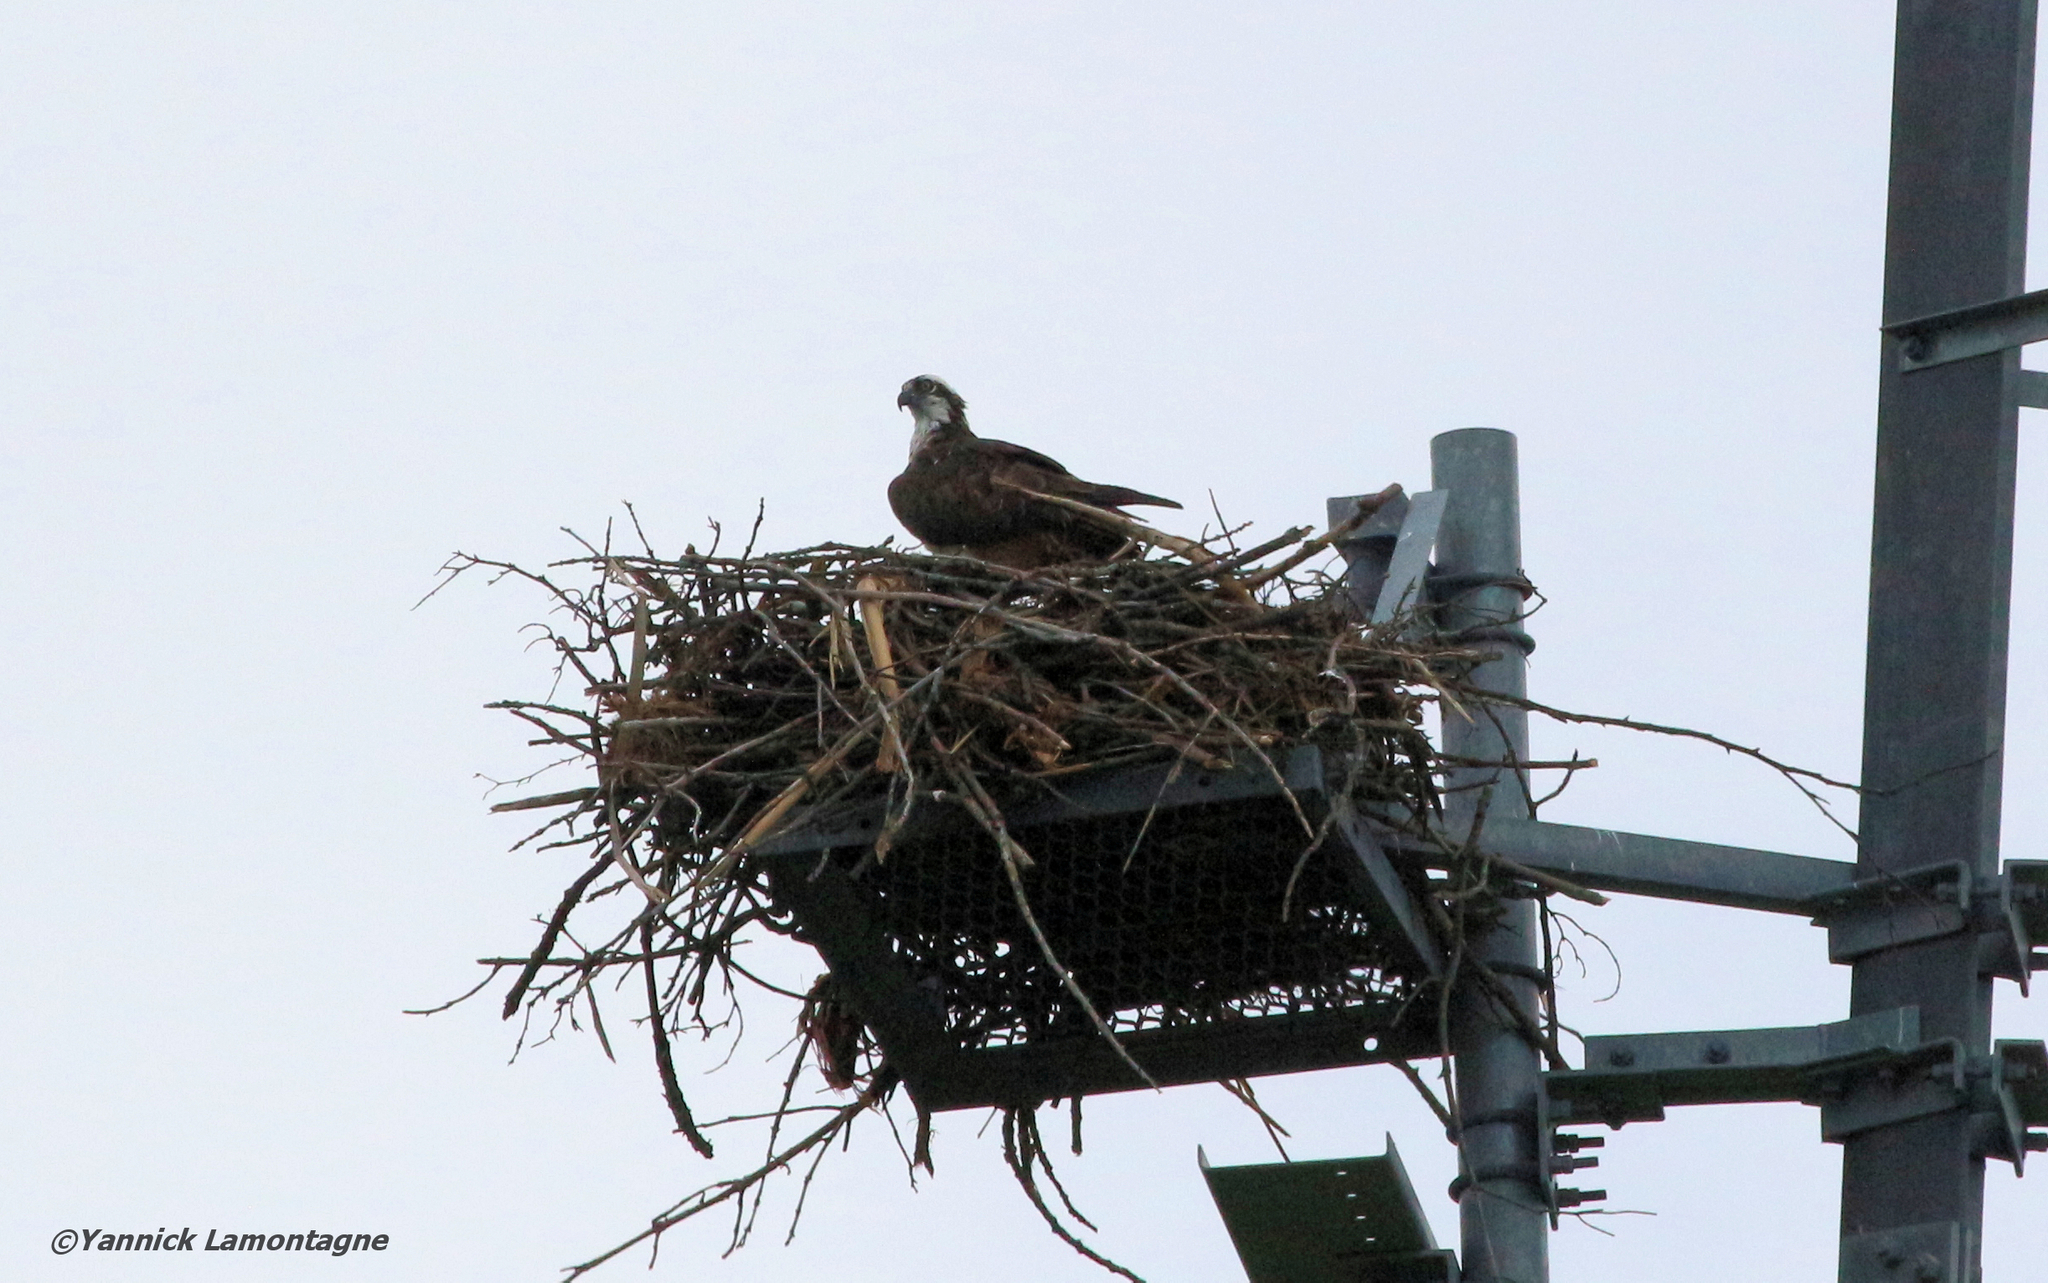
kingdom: Animalia
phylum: Chordata
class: Aves
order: Accipitriformes
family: Pandionidae
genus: Pandion
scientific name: Pandion haliaetus
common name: Osprey
